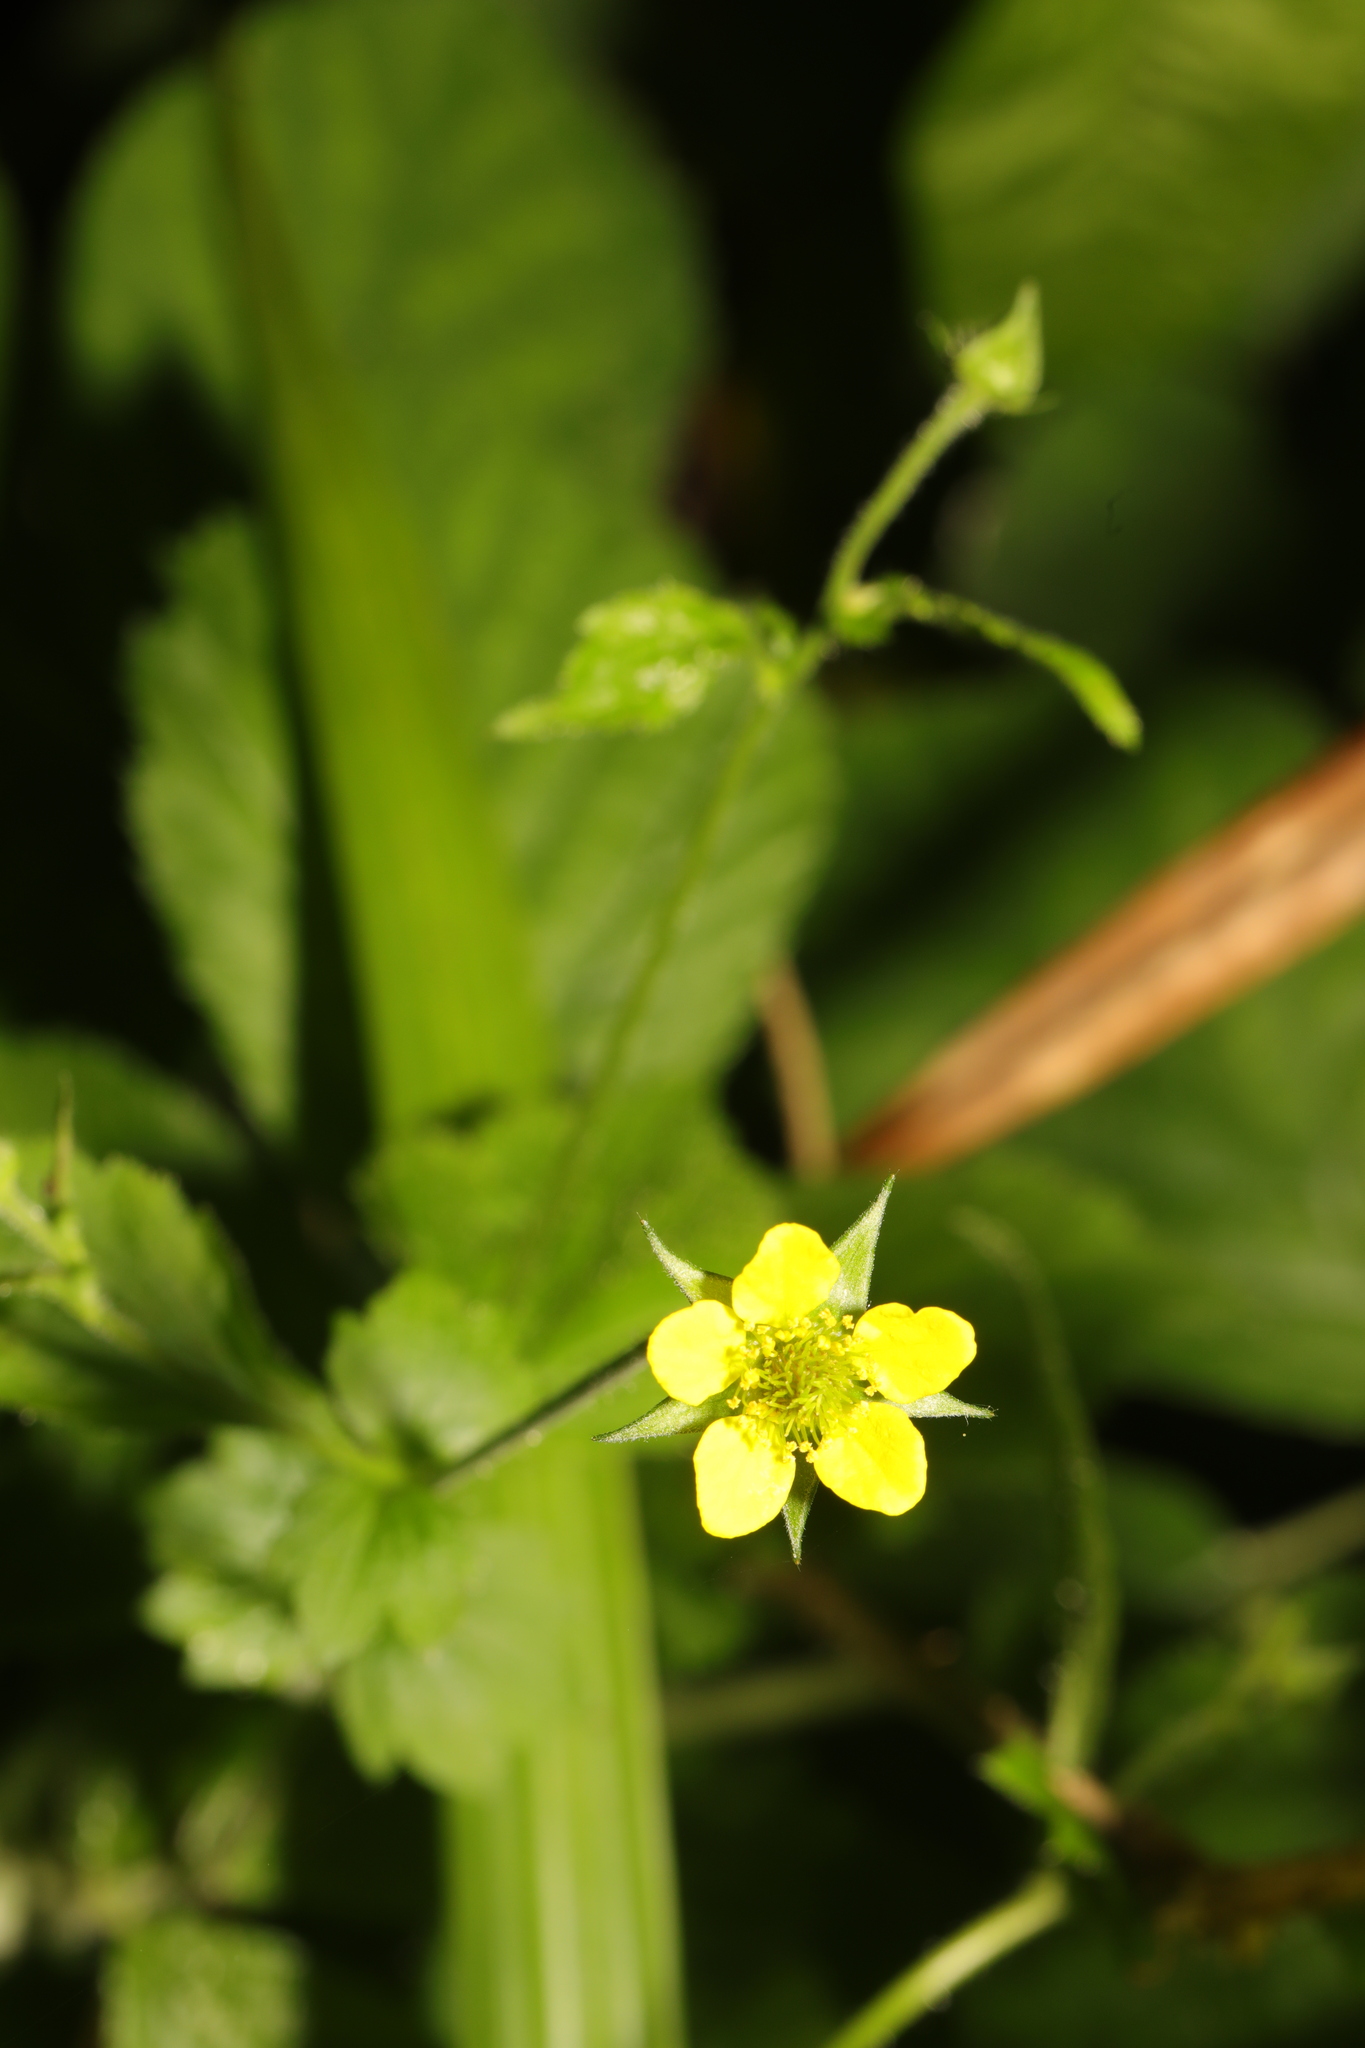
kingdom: Plantae
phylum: Tracheophyta
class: Magnoliopsida
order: Rosales
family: Rosaceae
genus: Geum
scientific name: Geum urbanum
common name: Wood avens
